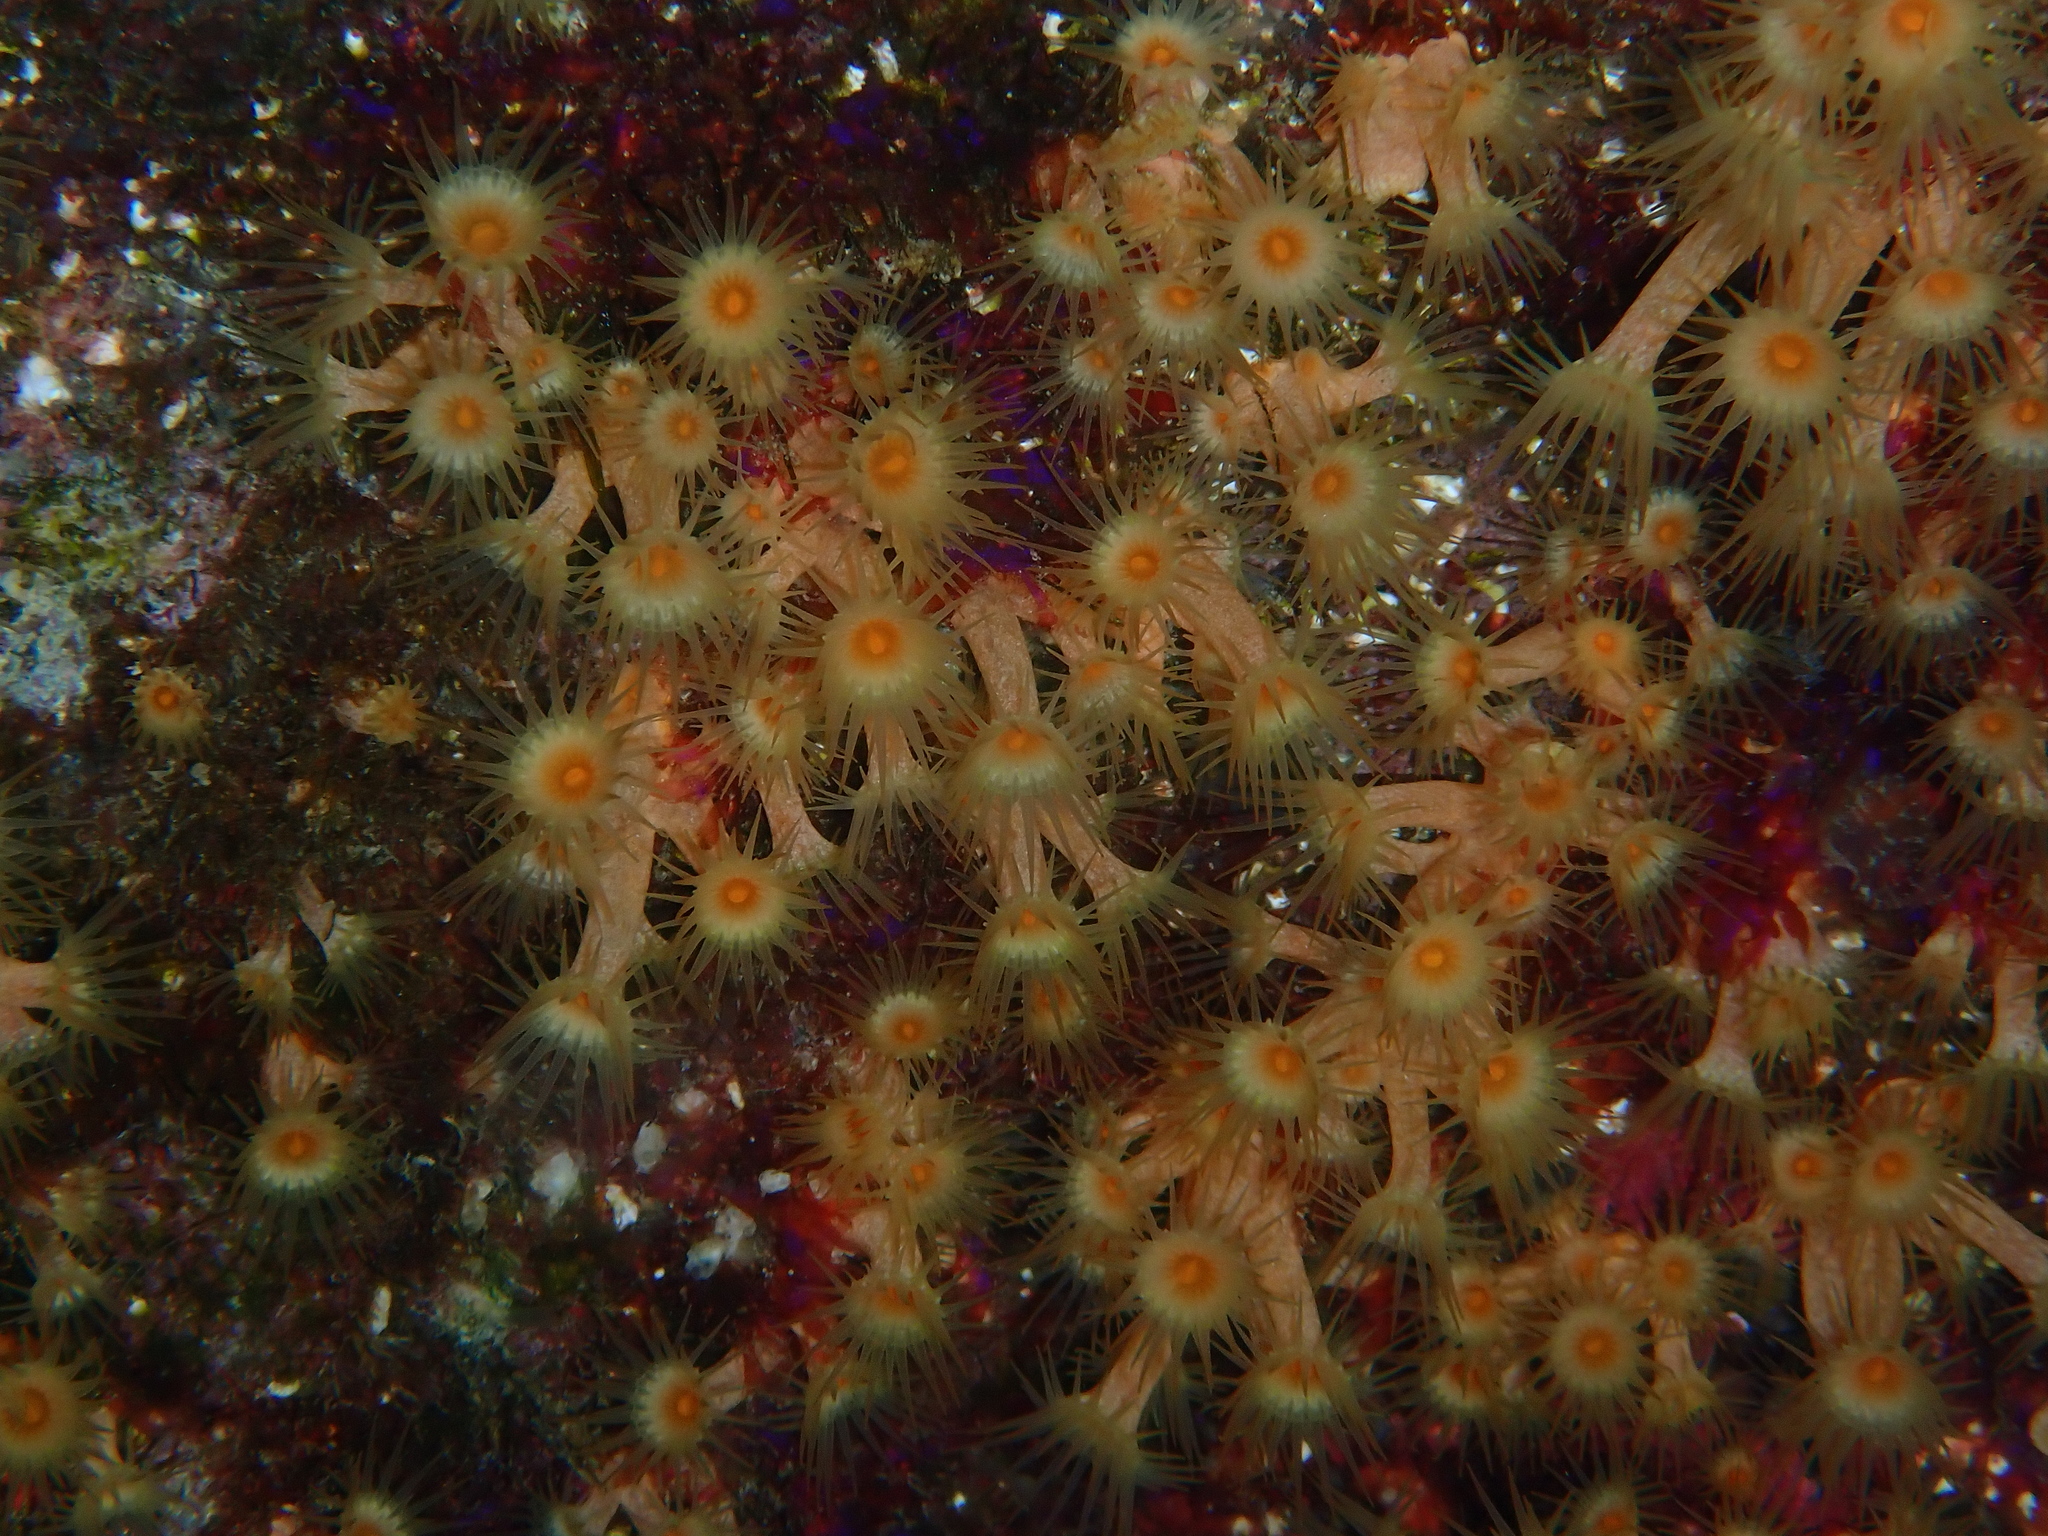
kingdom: Animalia
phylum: Cnidaria
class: Anthozoa
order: Zoantharia
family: Parazoanthidae
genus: Parazoanthus
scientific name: Parazoanthus axinellae
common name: Yellow cluster anemone
